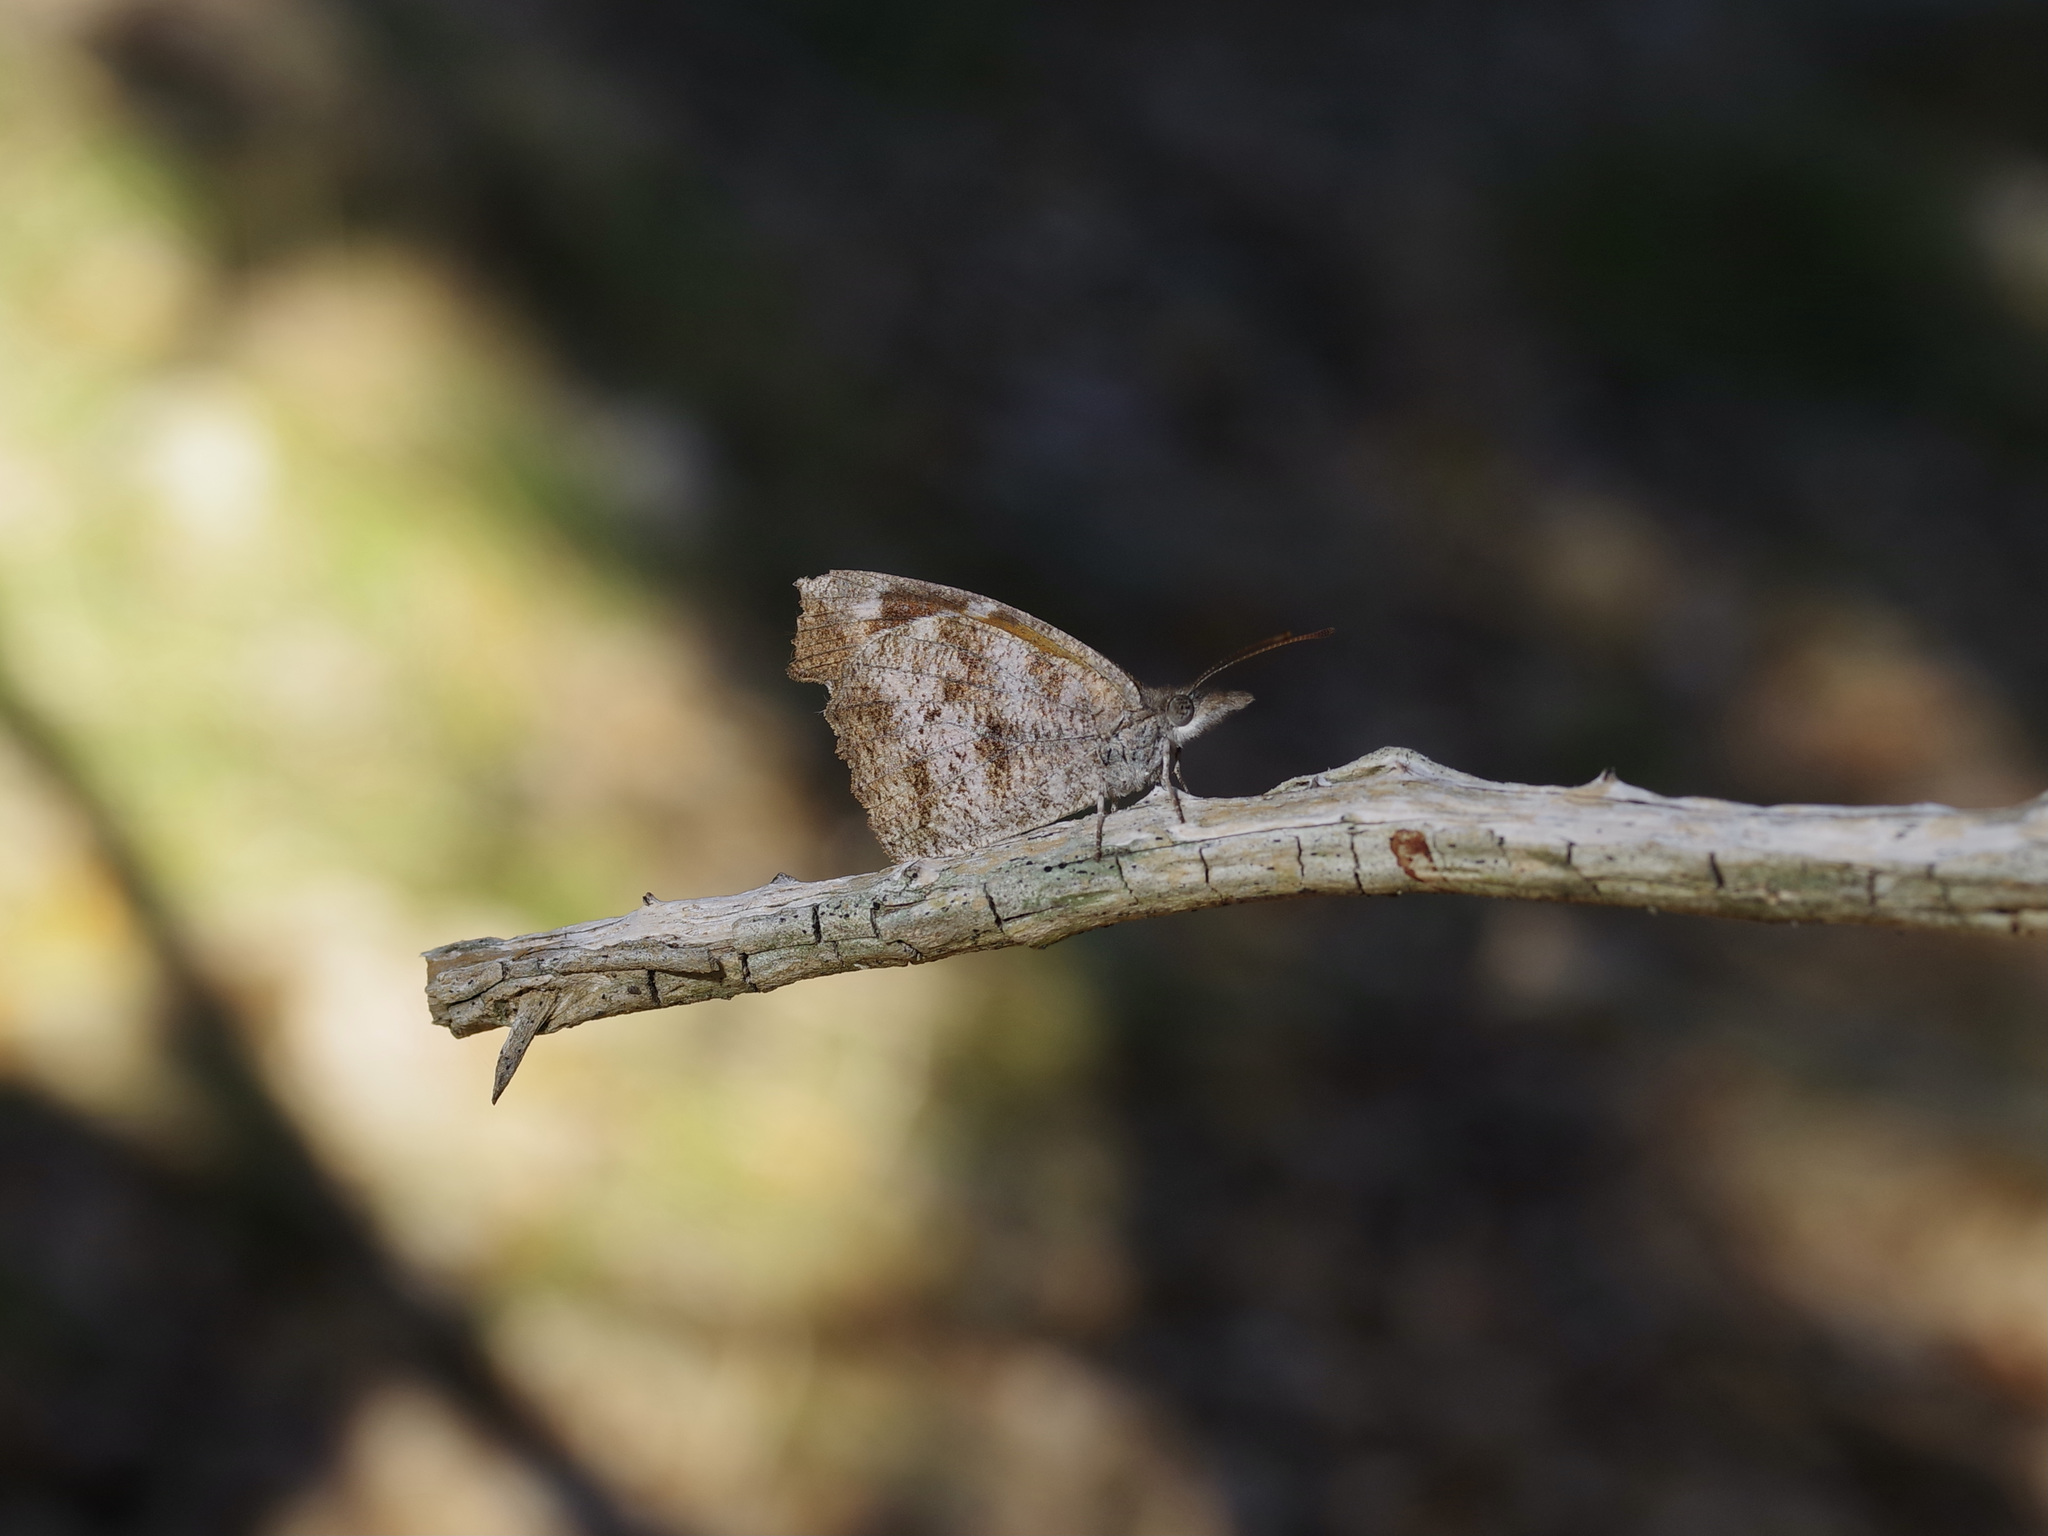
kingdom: Animalia
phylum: Arthropoda
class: Insecta
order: Lepidoptera
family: Nymphalidae
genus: Libytheana
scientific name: Libytheana carinenta
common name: American snout
